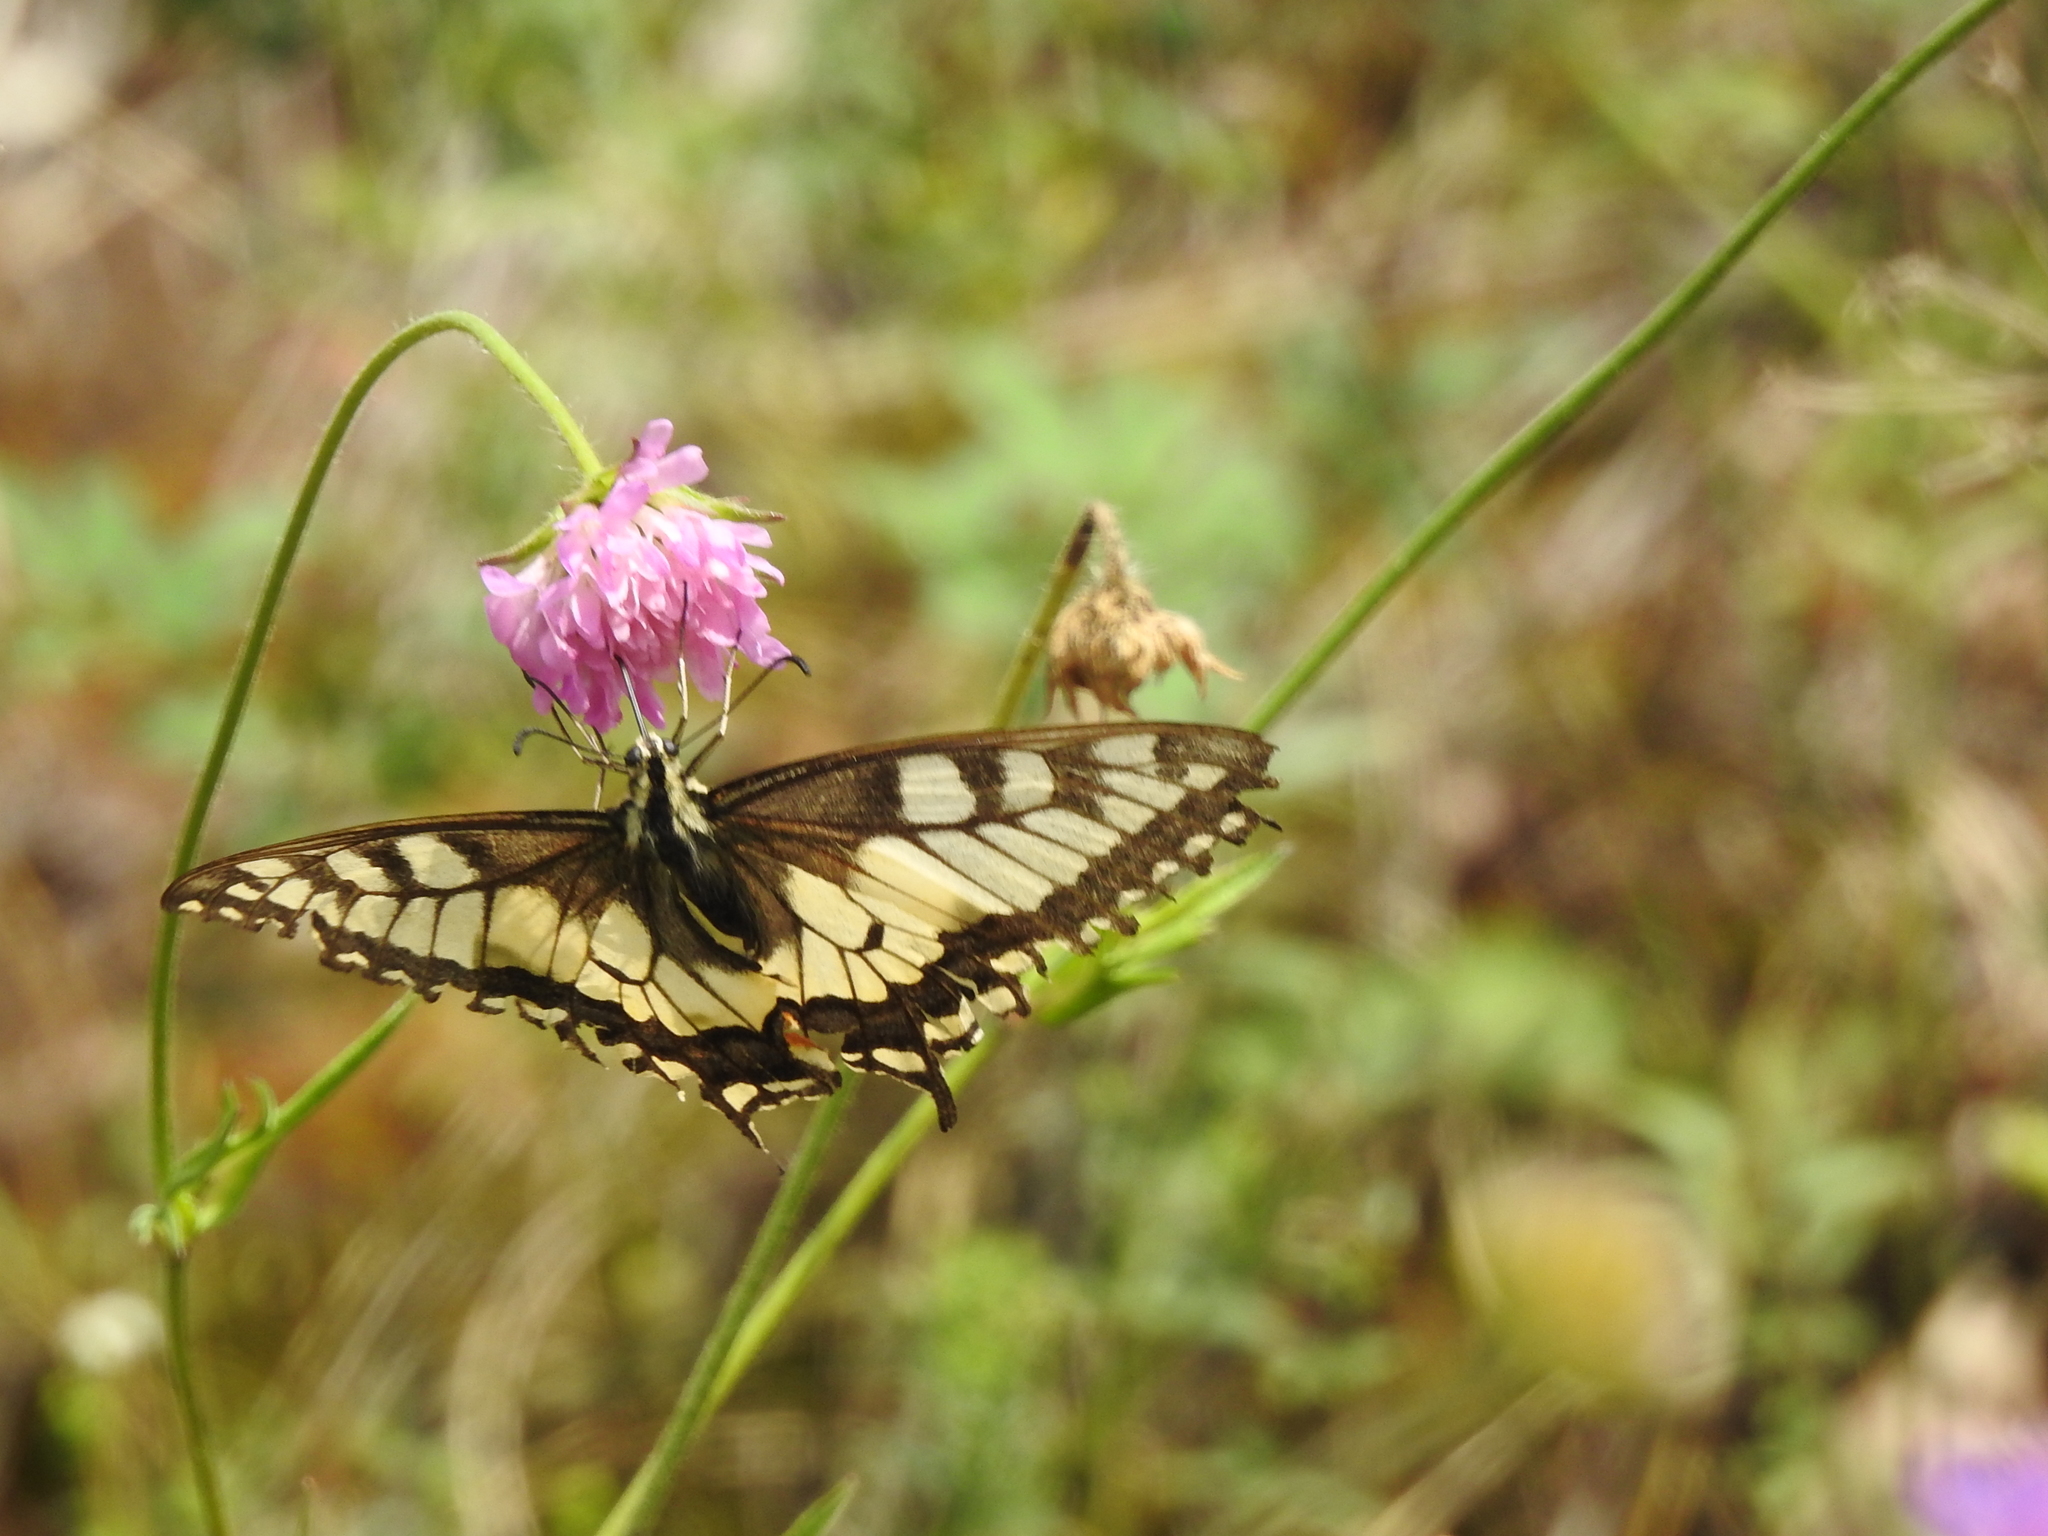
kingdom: Animalia
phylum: Arthropoda
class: Insecta
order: Lepidoptera
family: Papilionidae
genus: Papilio
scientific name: Papilio machaon
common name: Swallowtail
